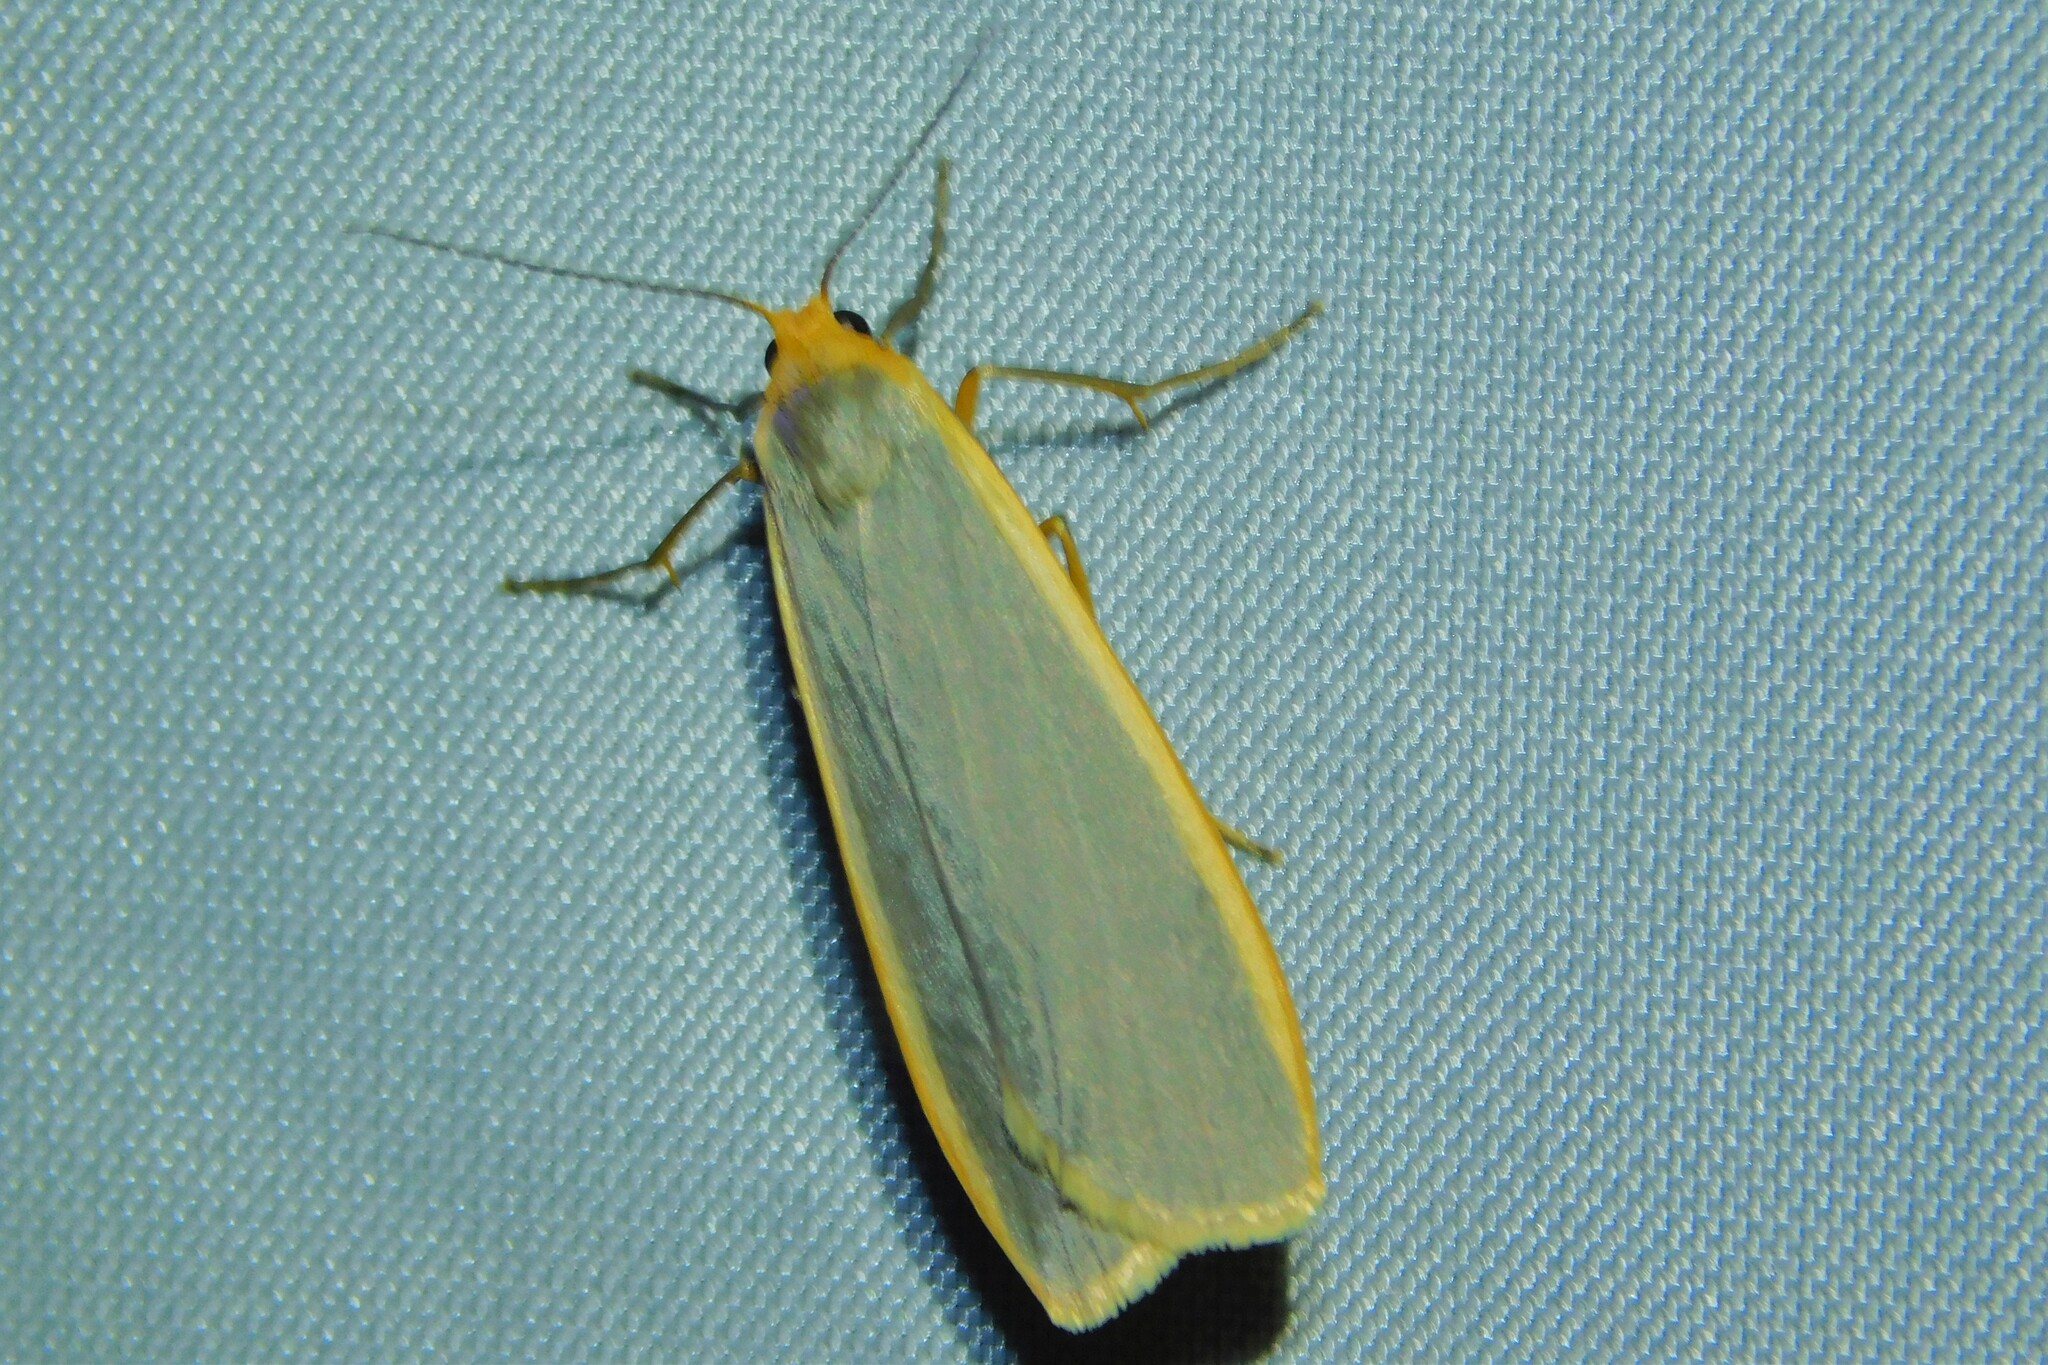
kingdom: Animalia
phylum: Arthropoda
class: Insecta
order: Lepidoptera
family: Erebidae
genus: Nyea
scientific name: Nyea lurideola
